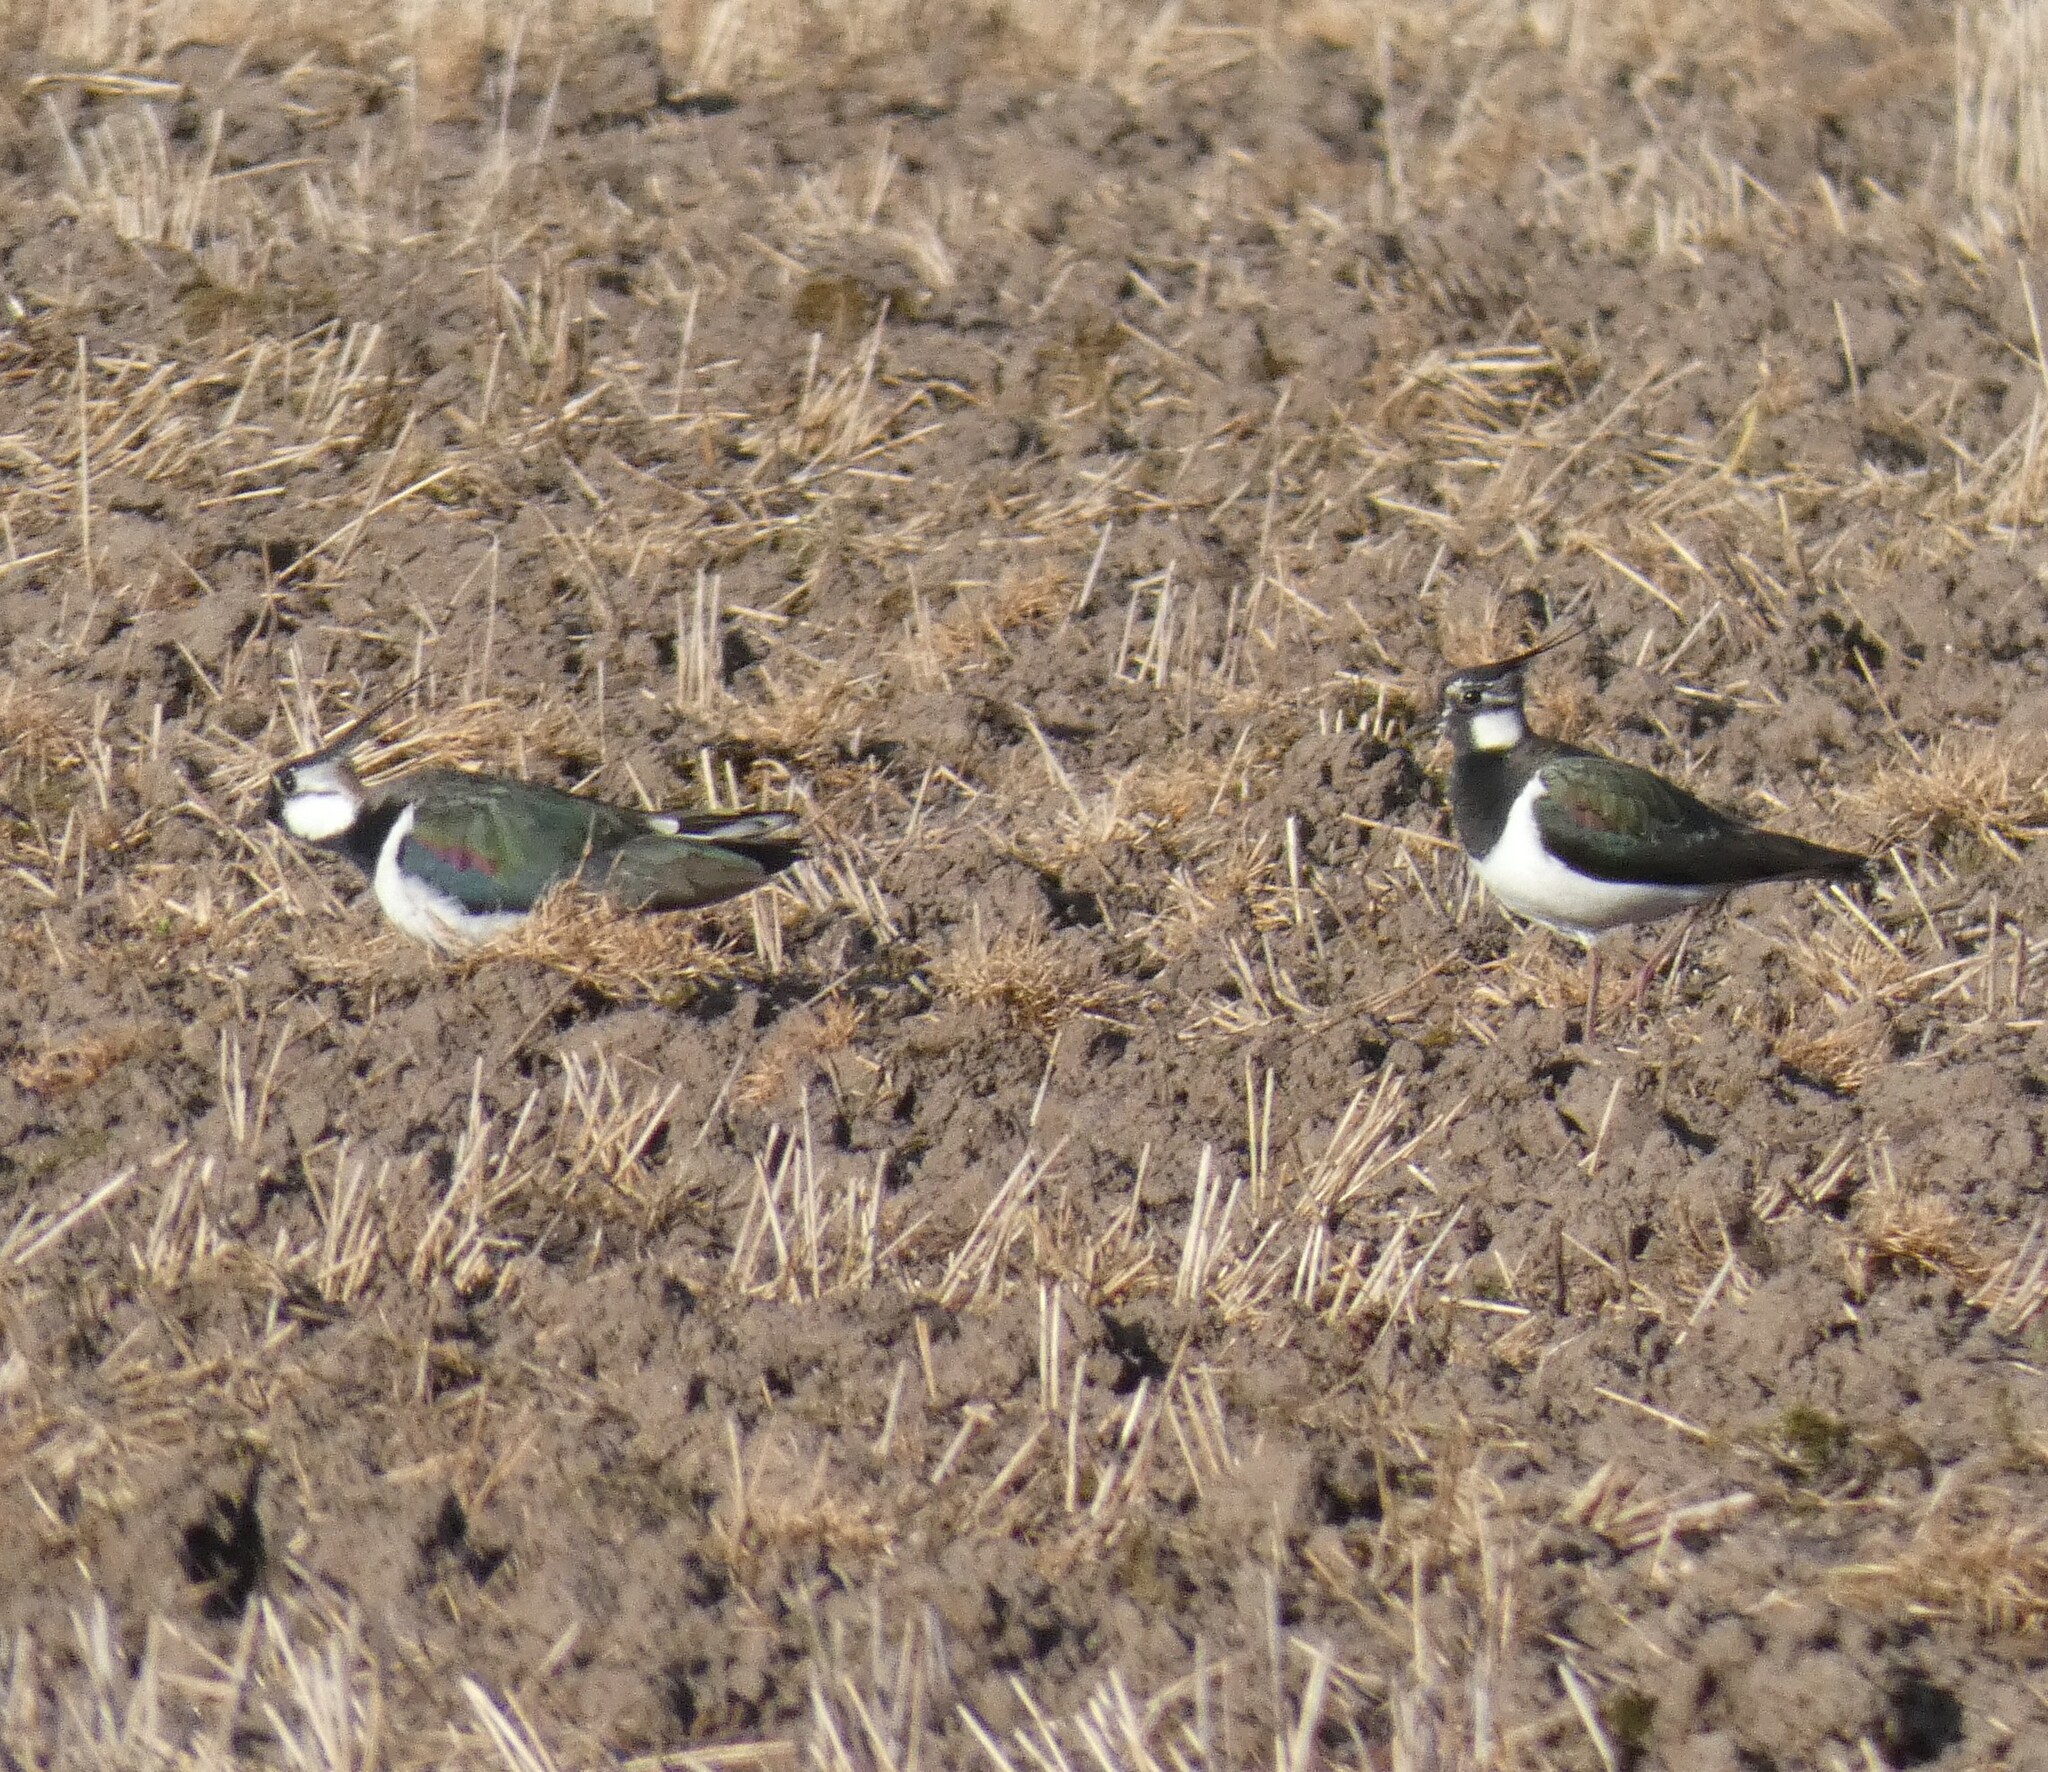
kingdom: Animalia
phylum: Chordata
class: Aves
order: Charadriiformes
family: Charadriidae
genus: Vanellus
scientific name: Vanellus vanellus
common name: Northern lapwing
